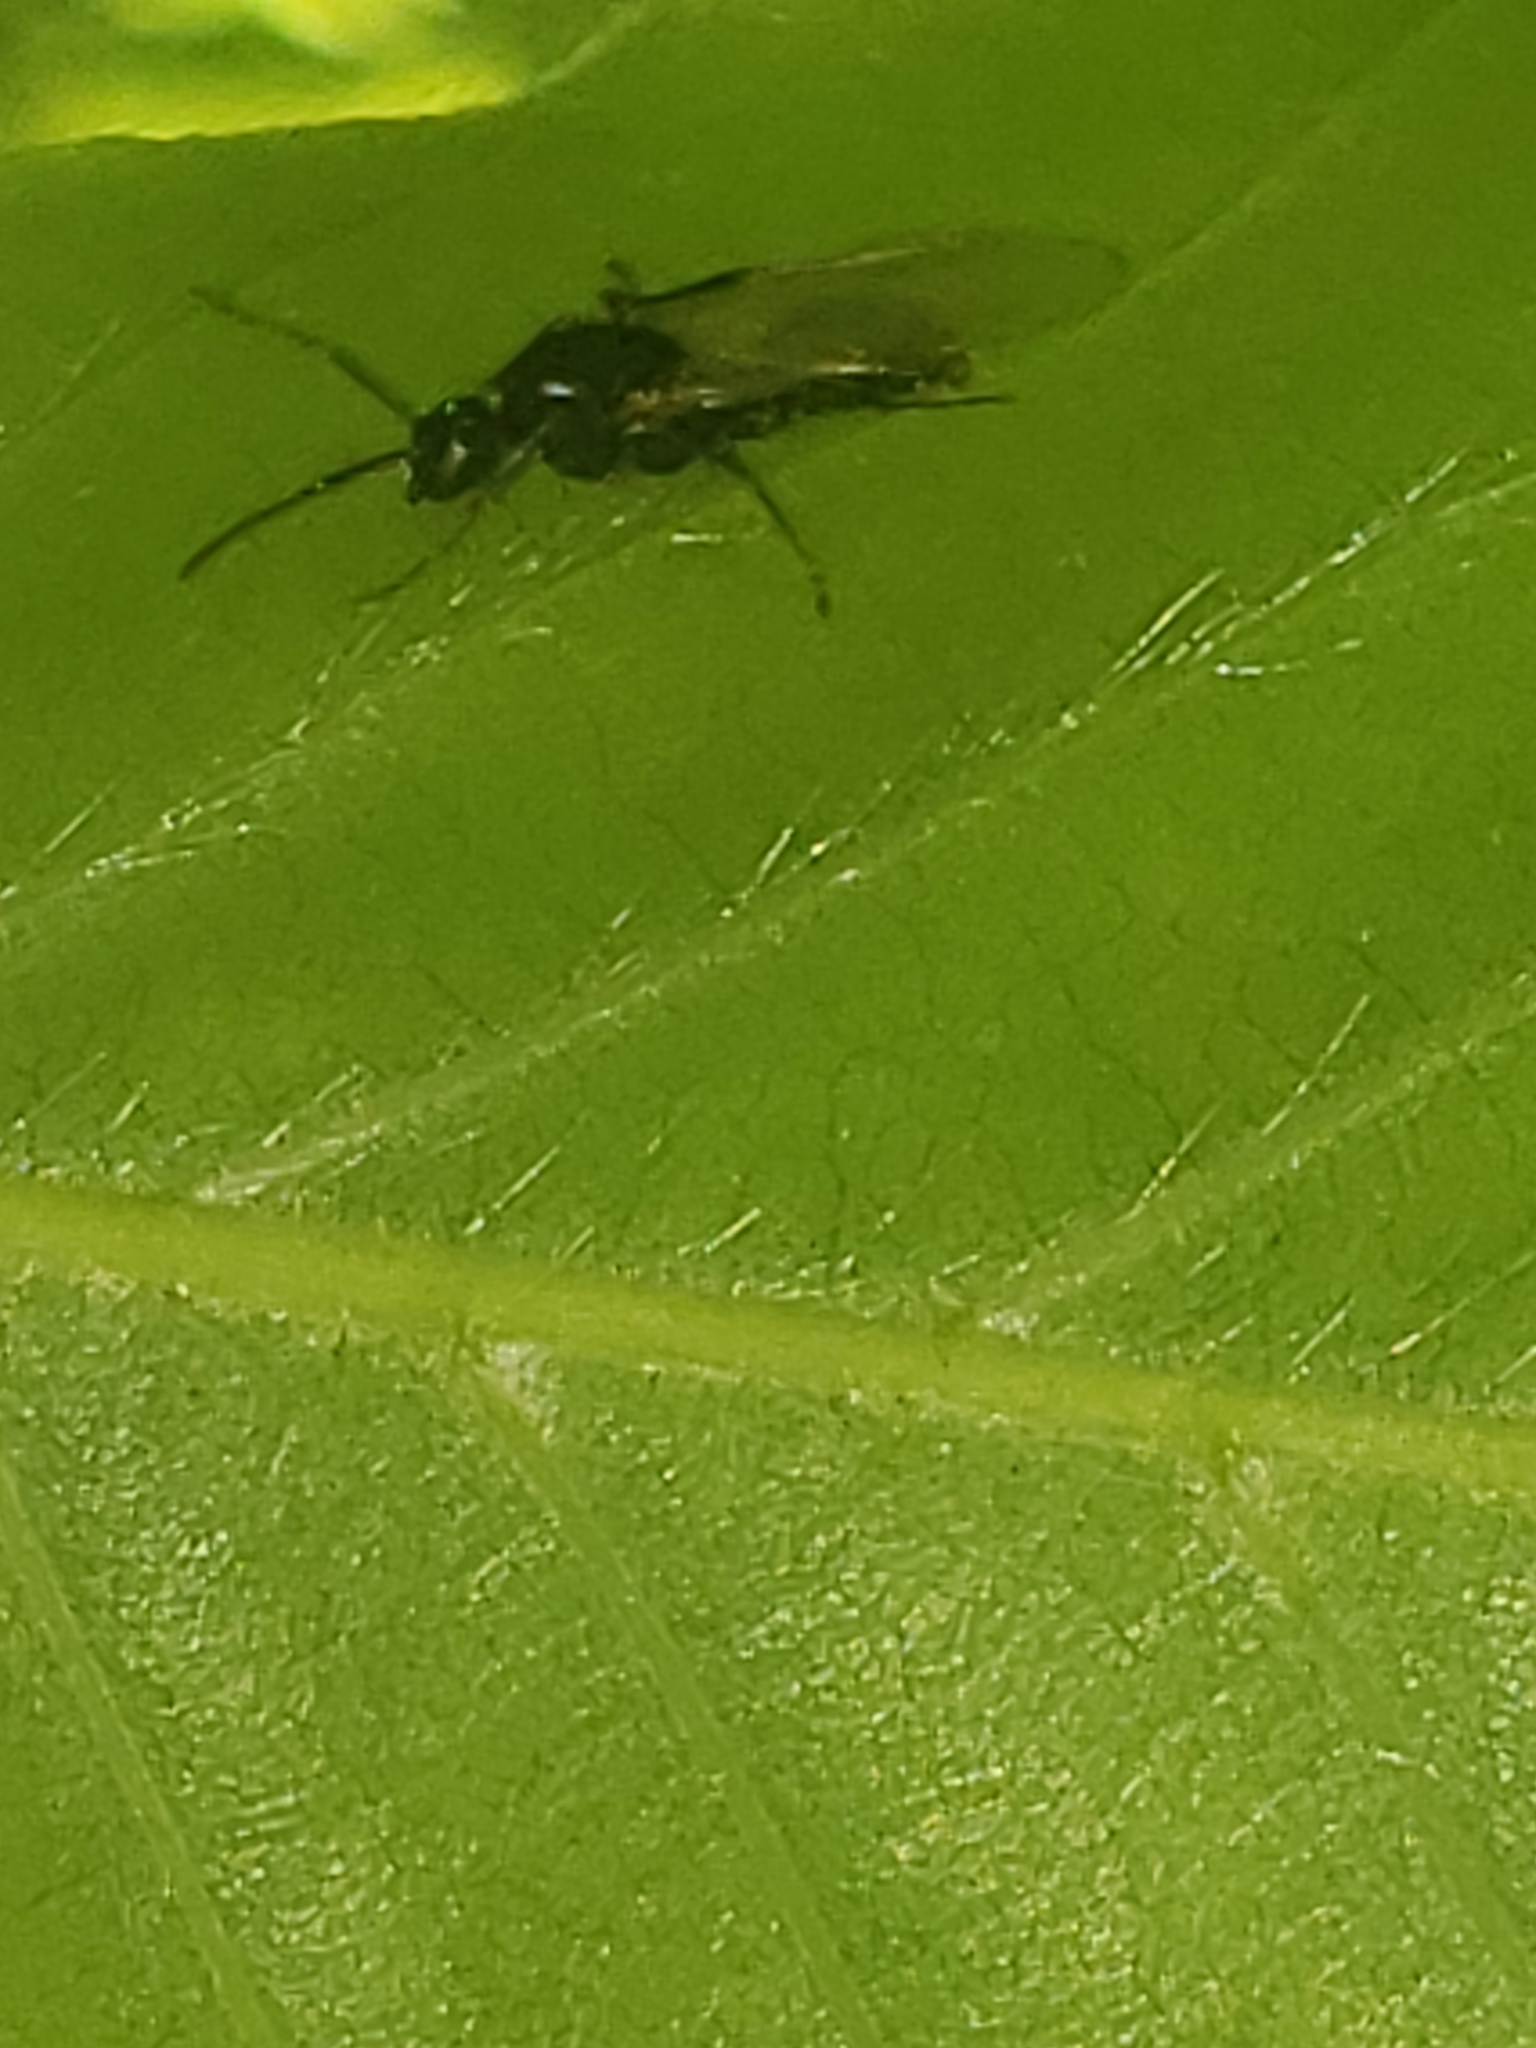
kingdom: Animalia
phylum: Arthropoda
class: Insecta
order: Hymenoptera
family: Formicidae
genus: Camponotus
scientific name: Camponotus pennsylvanicus
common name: Black carpenter ant
